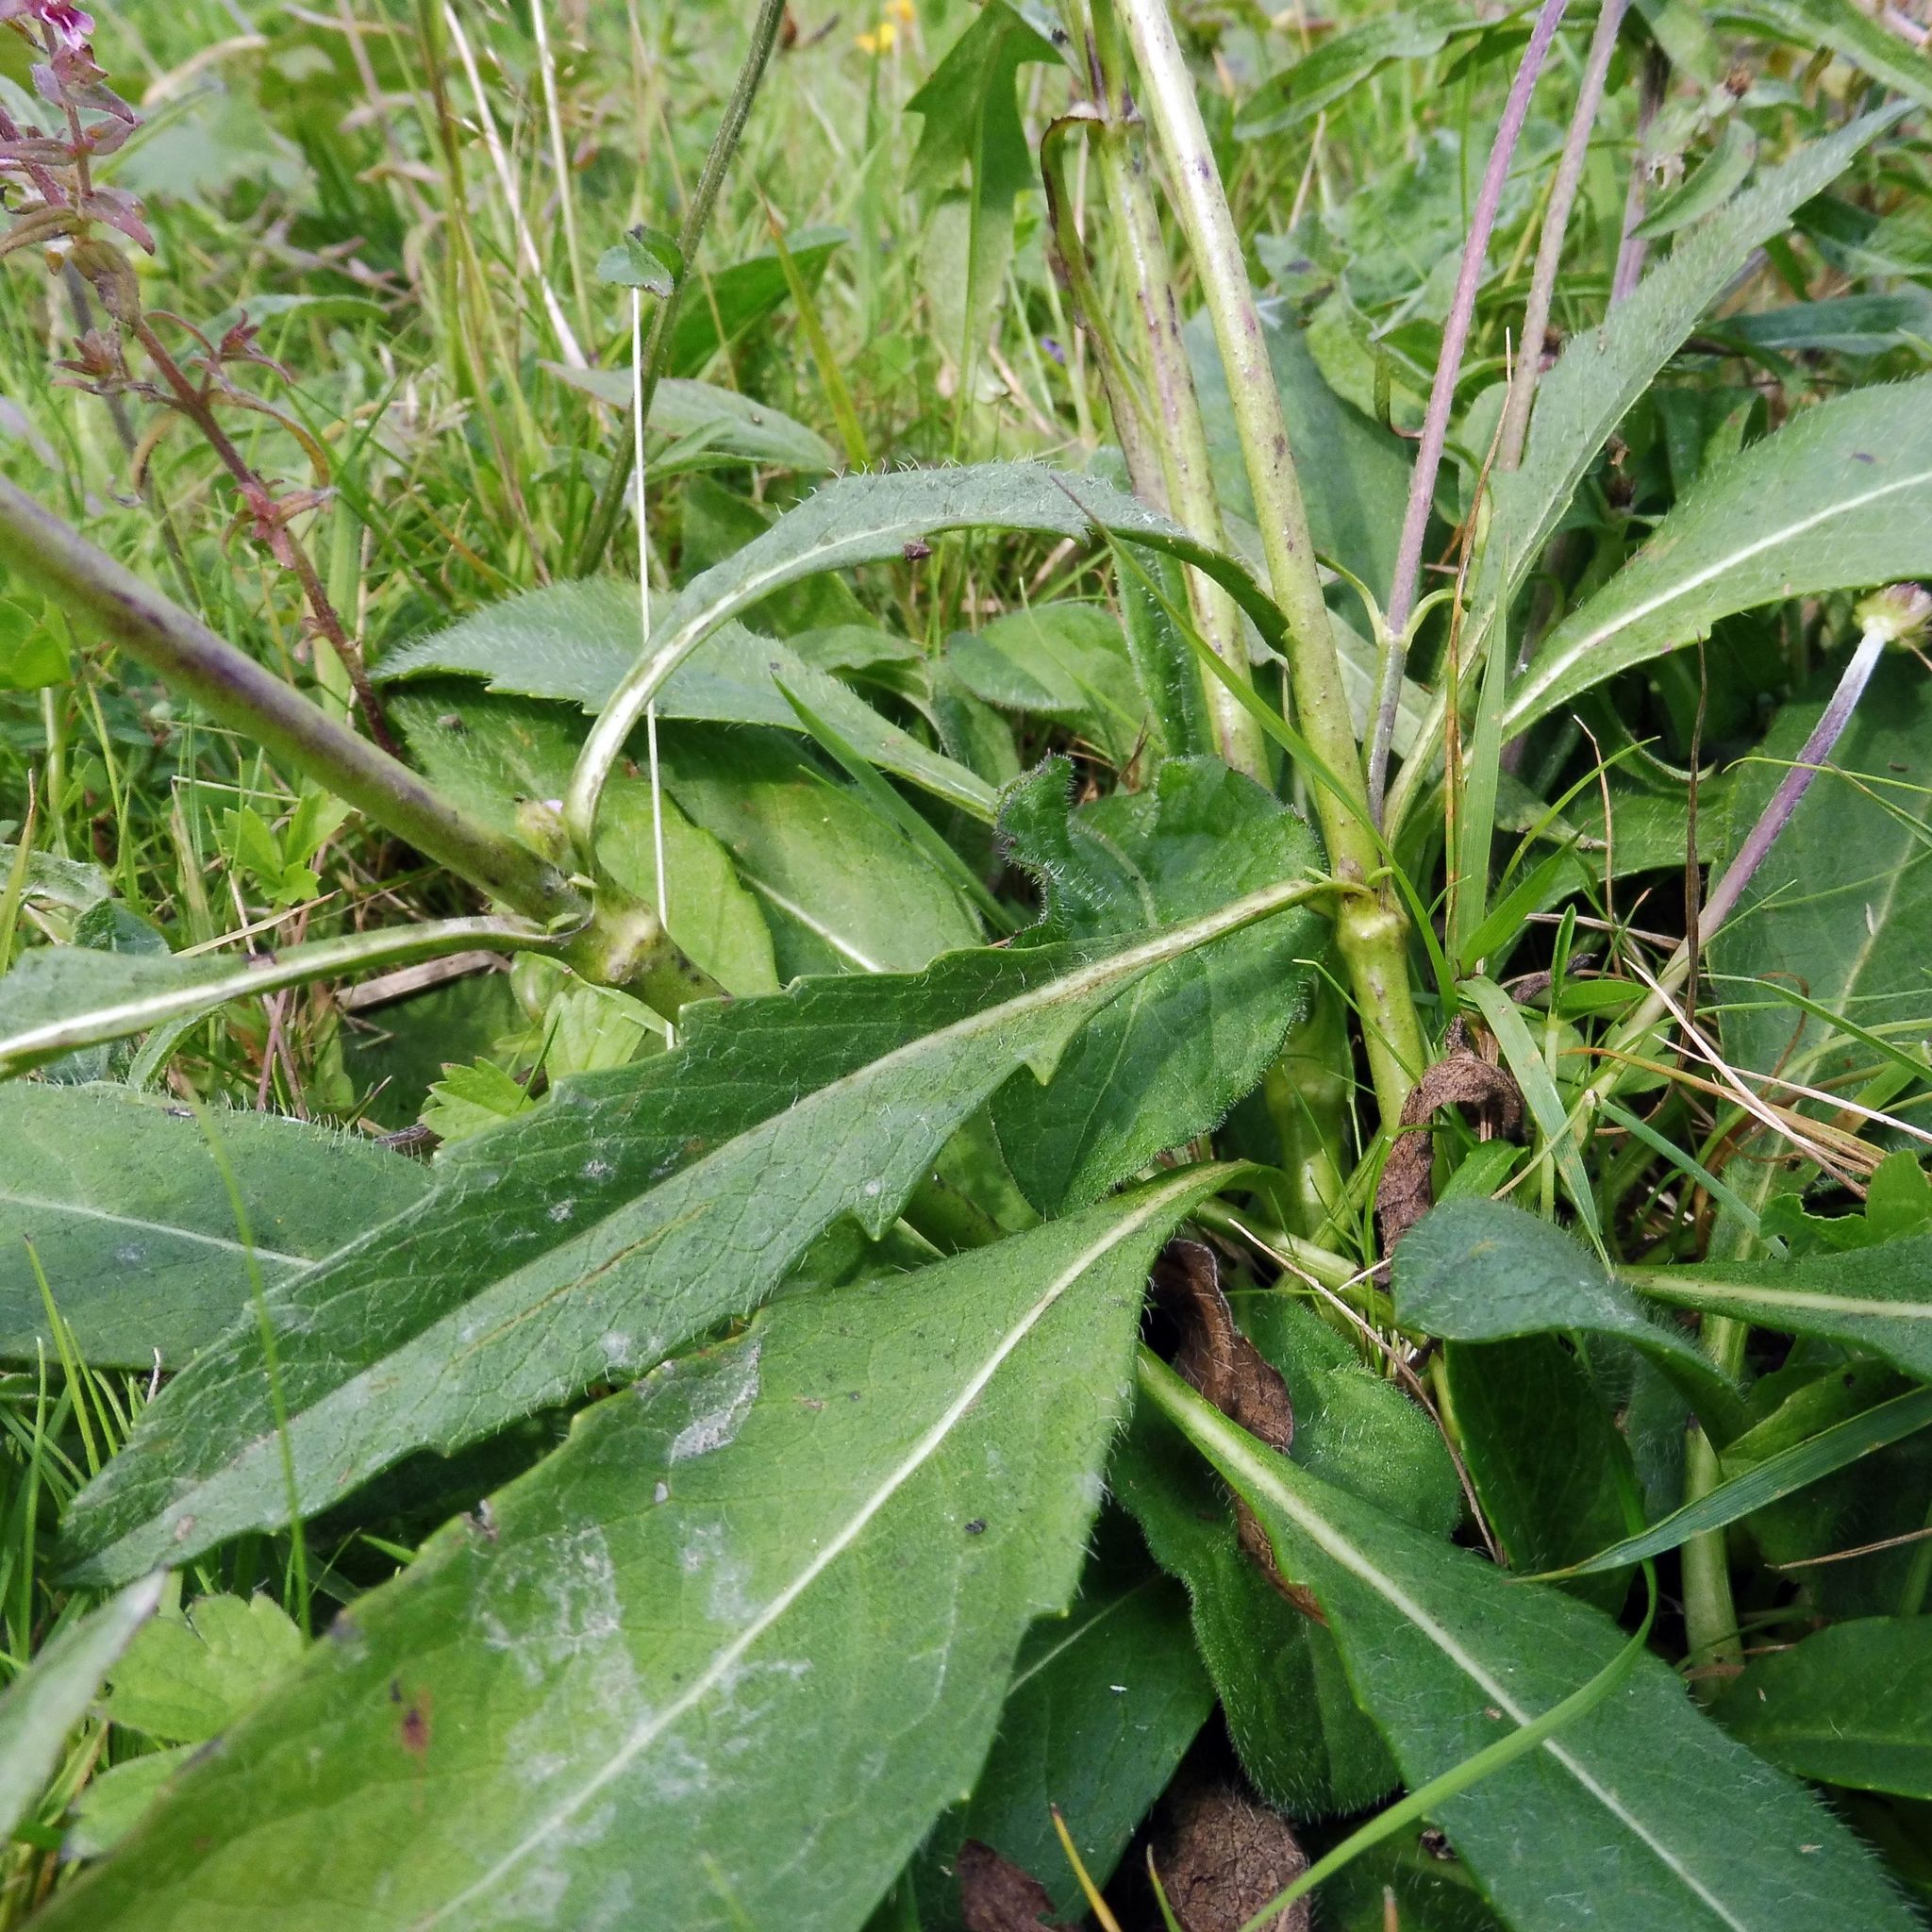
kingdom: Plantae
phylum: Tracheophyta
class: Magnoliopsida
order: Dipsacales
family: Caprifoliaceae
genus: Succisa
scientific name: Succisa pratensis
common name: Devil's-bit
